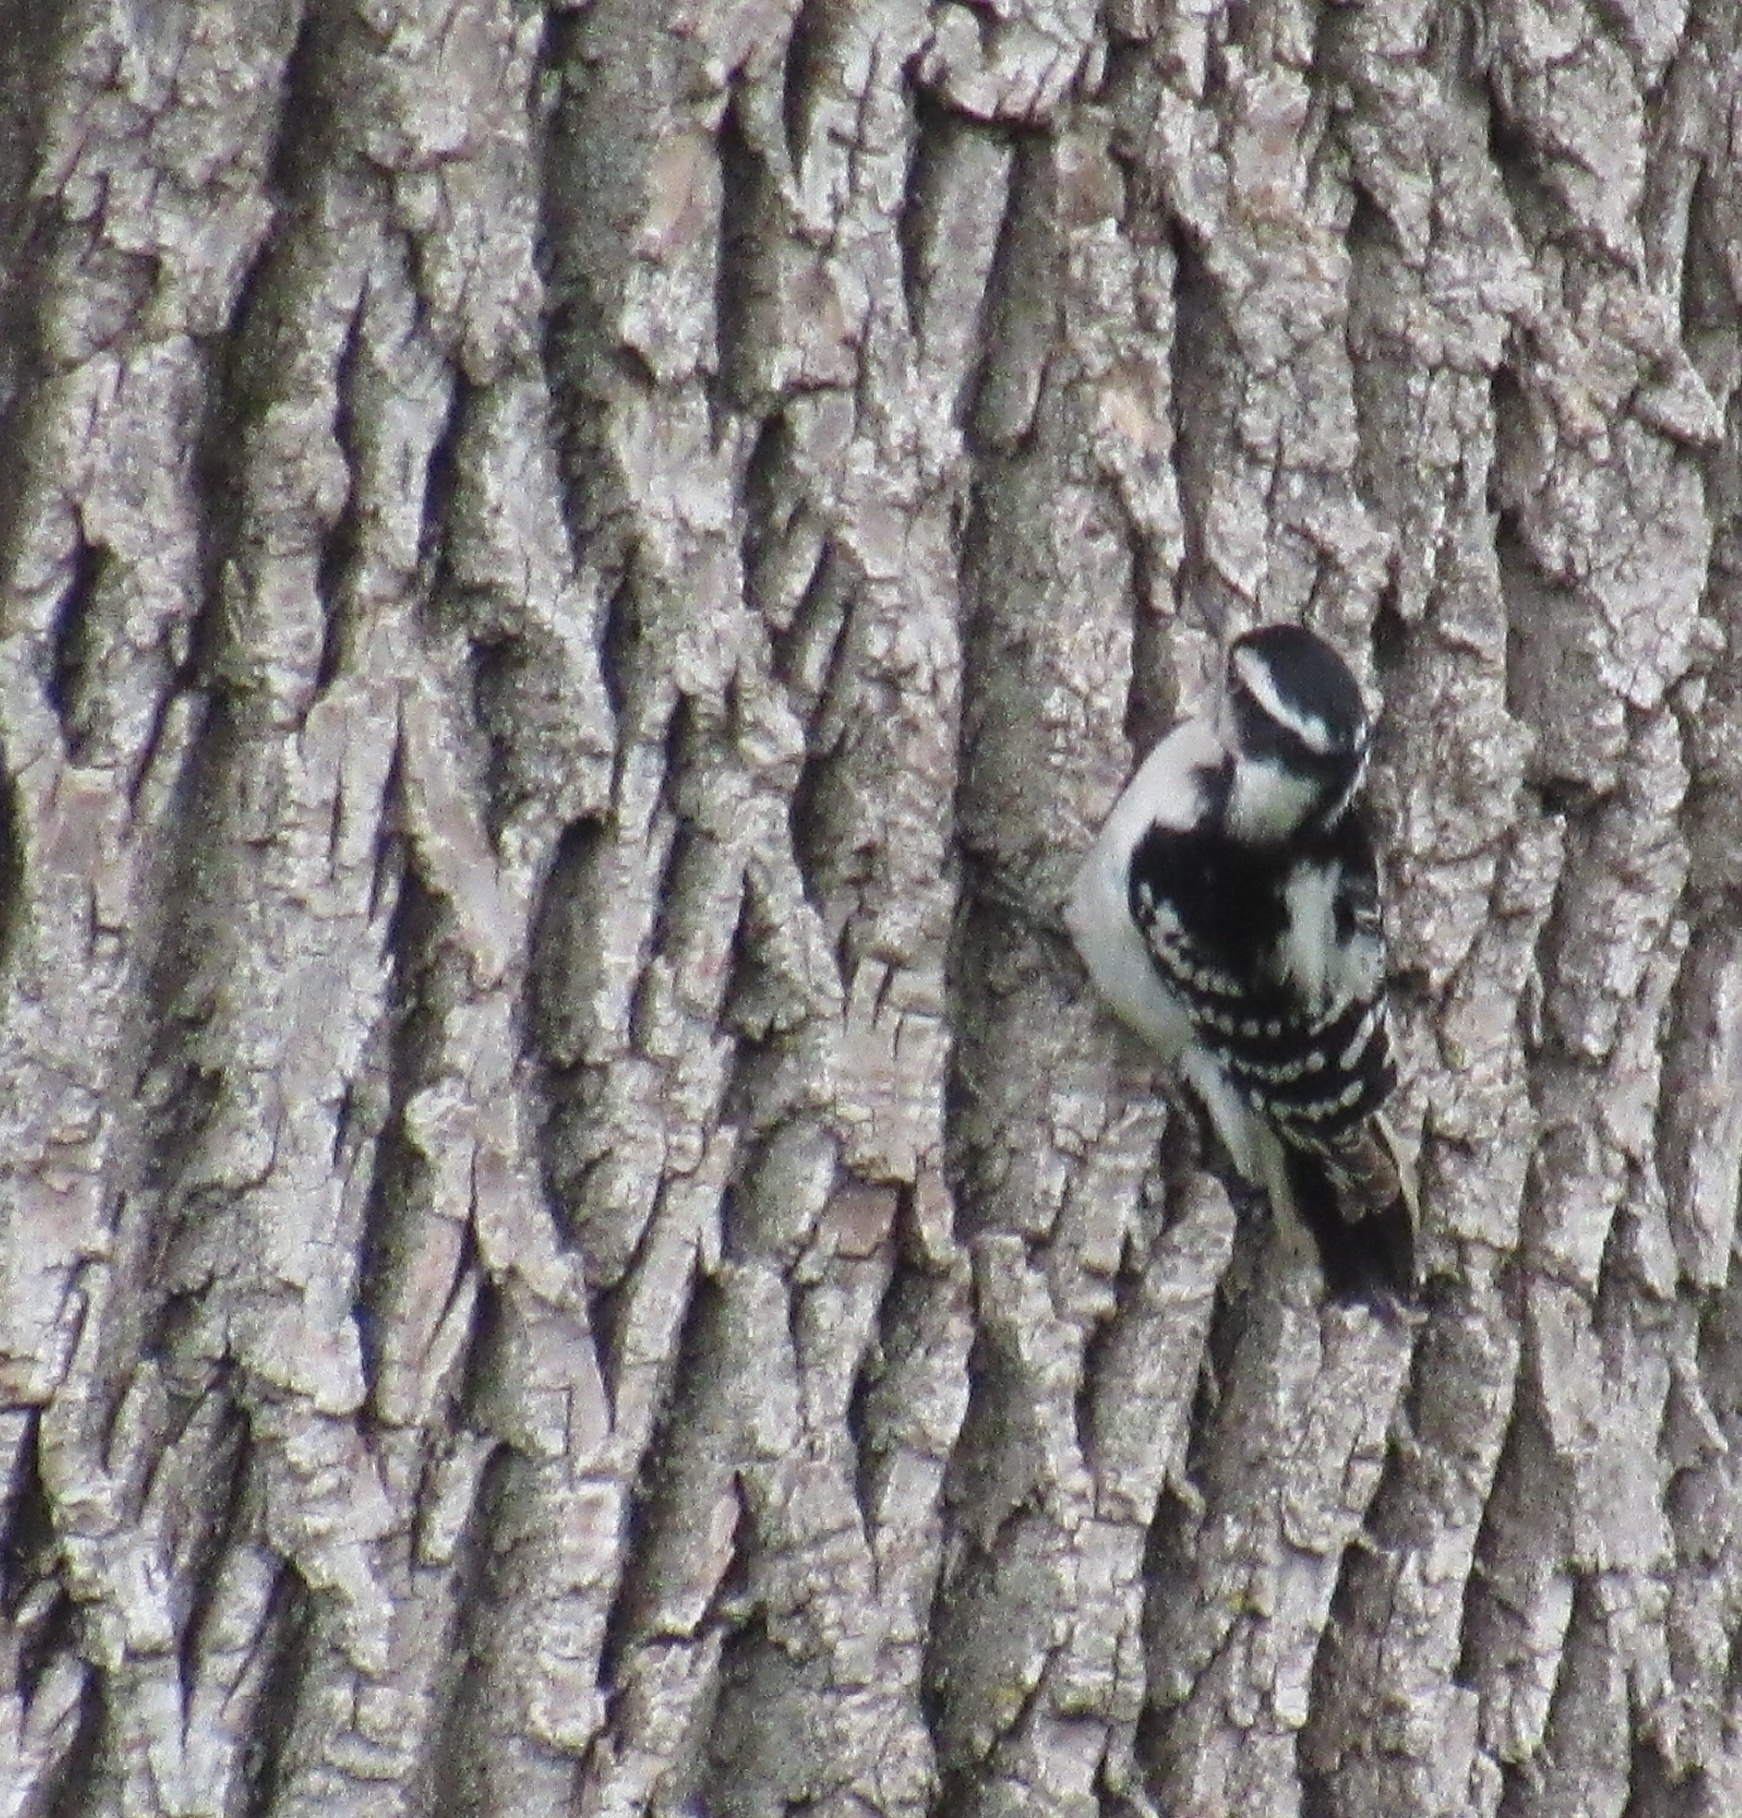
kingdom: Animalia
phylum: Chordata
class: Aves
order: Piciformes
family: Picidae
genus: Dryobates
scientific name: Dryobates pubescens
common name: Downy woodpecker
